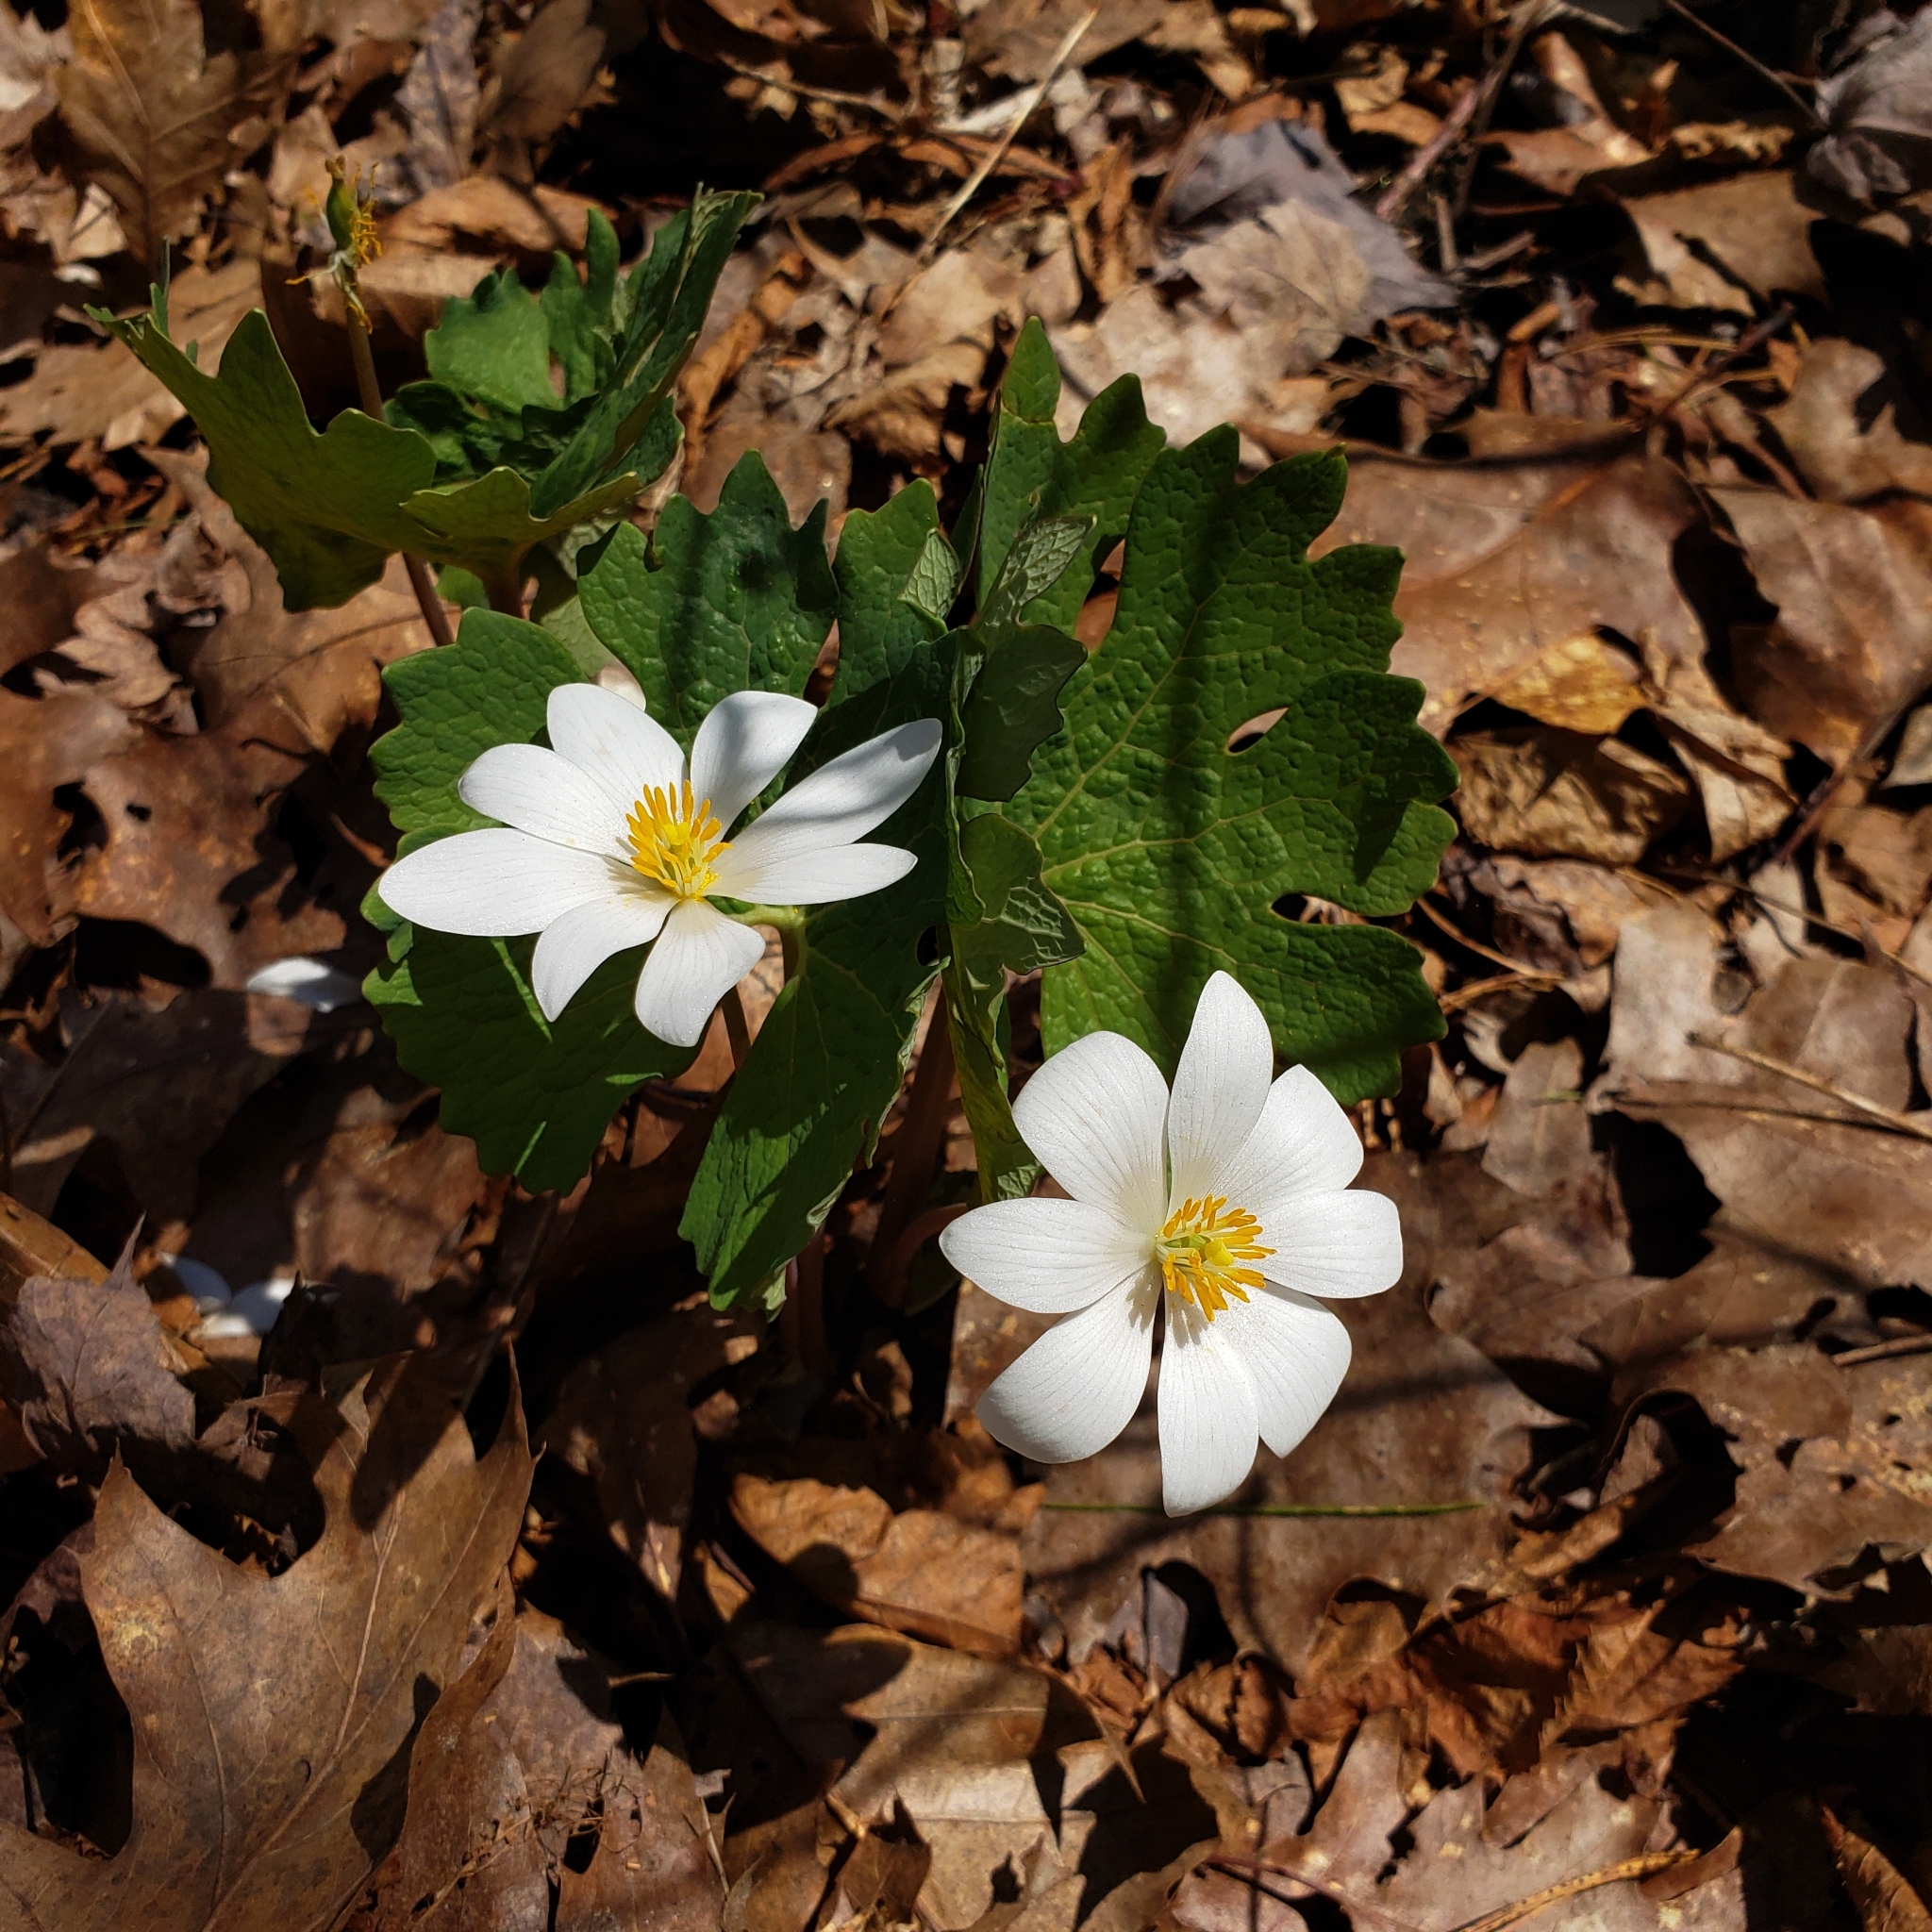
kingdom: Plantae
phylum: Tracheophyta
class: Magnoliopsida
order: Ranunculales
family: Papaveraceae
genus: Sanguinaria
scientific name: Sanguinaria canadensis
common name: Bloodroot
